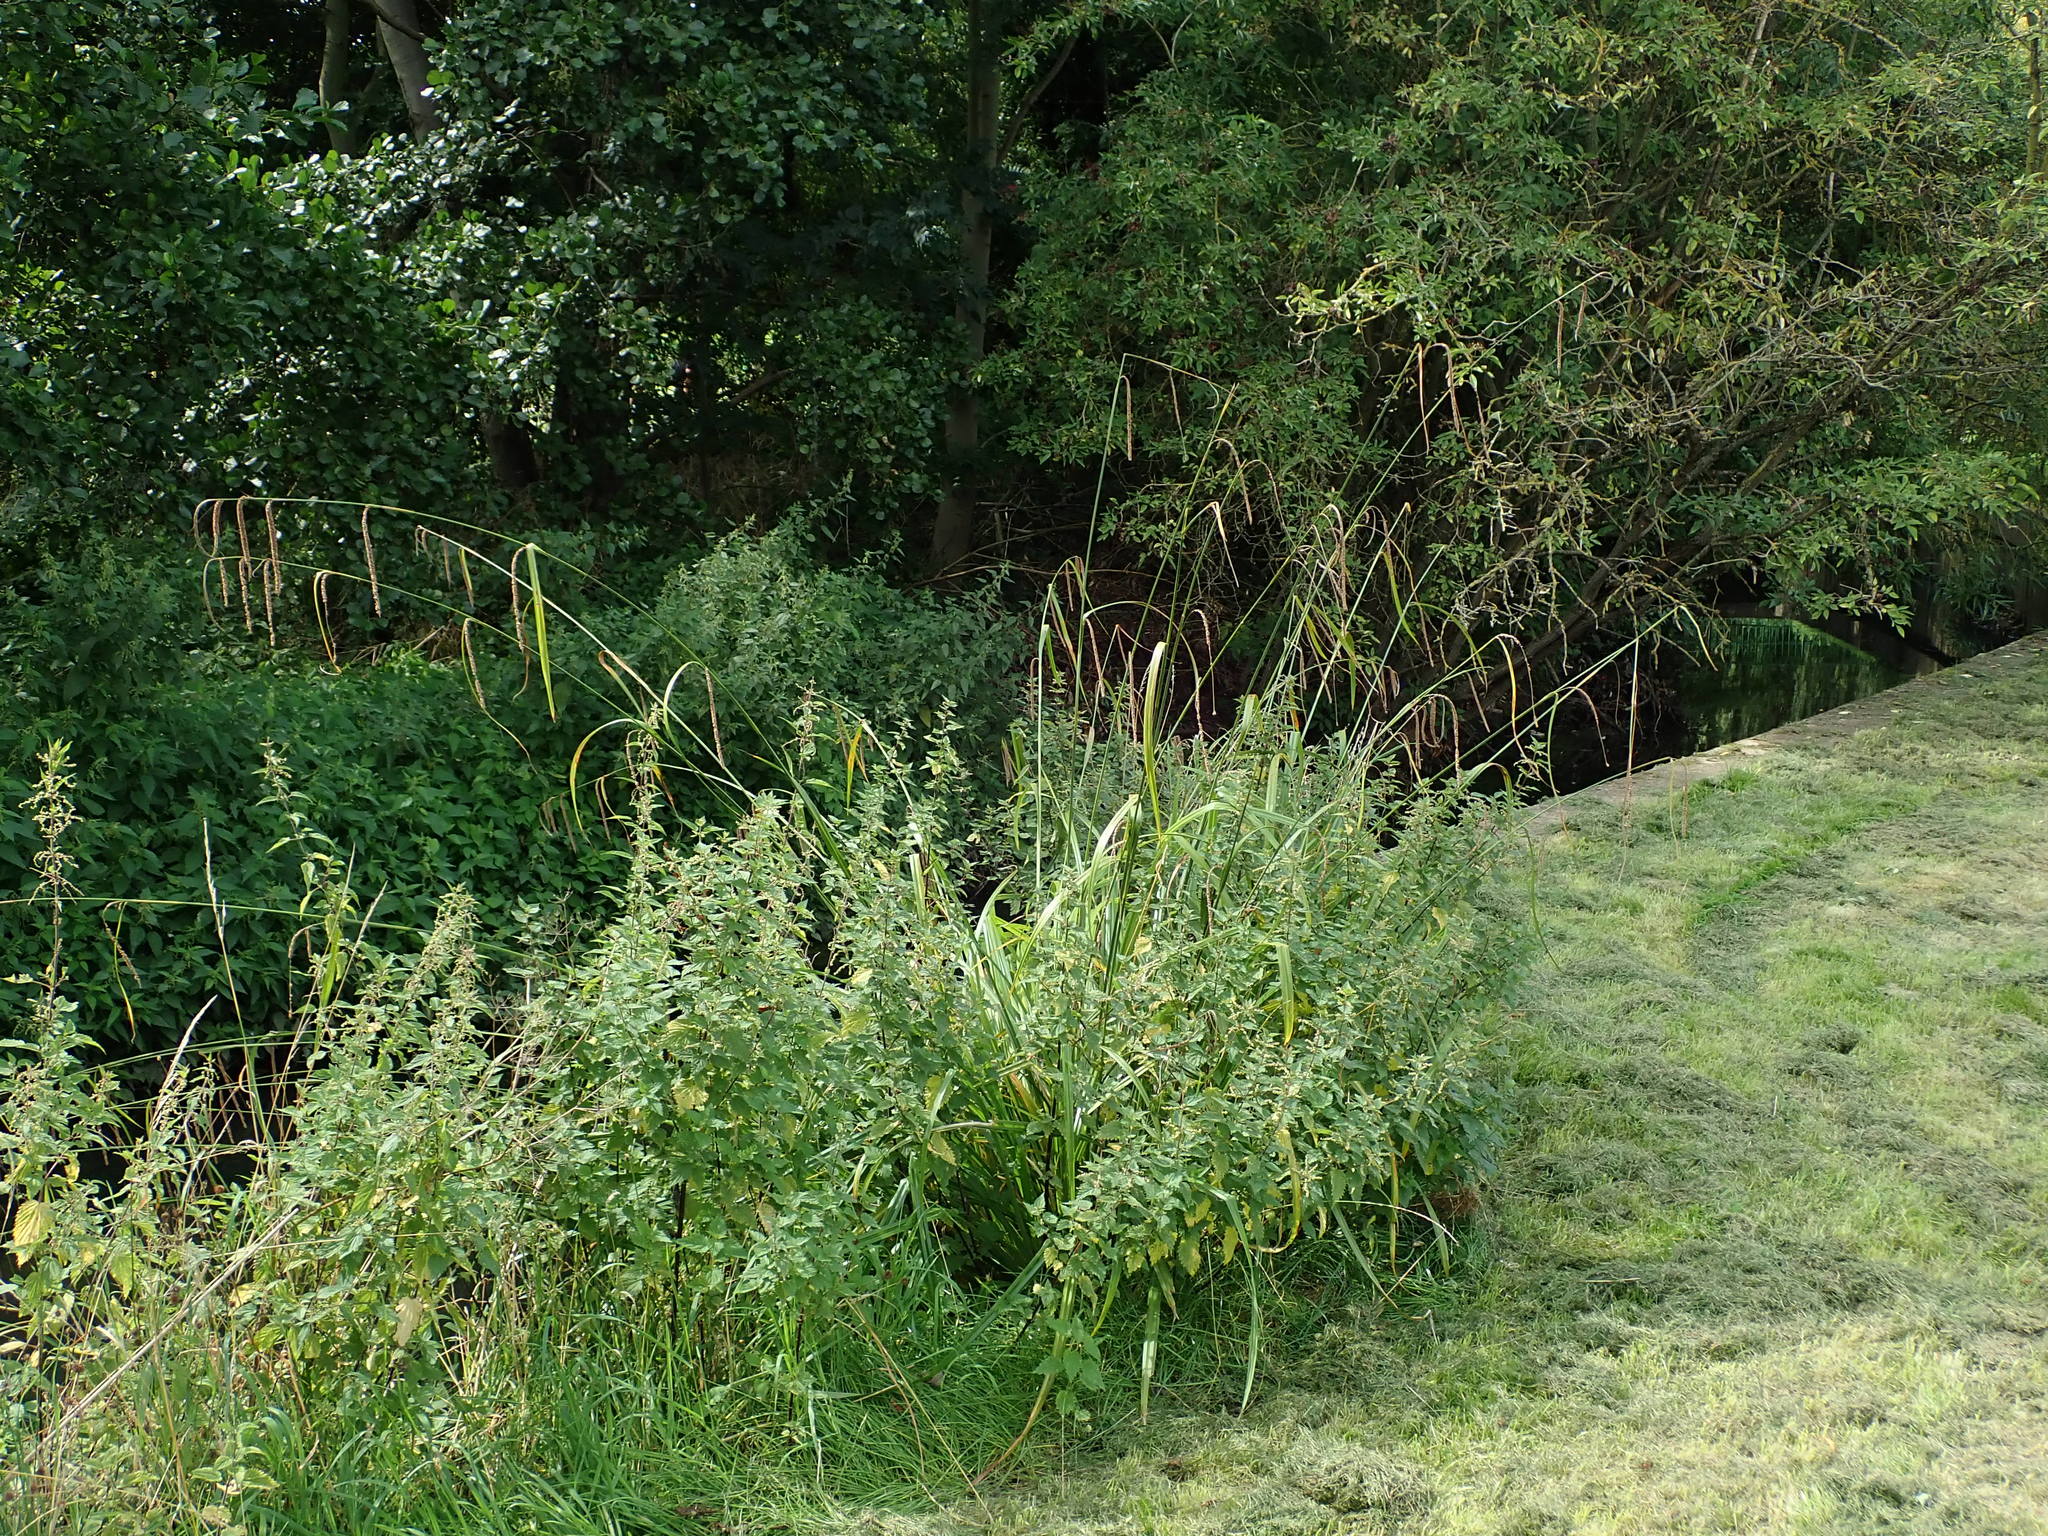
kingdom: Plantae
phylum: Tracheophyta
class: Liliopsida
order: Poales
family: Cyperaceae
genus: Carex
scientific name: Carex pendula
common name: Pendulous sedge
